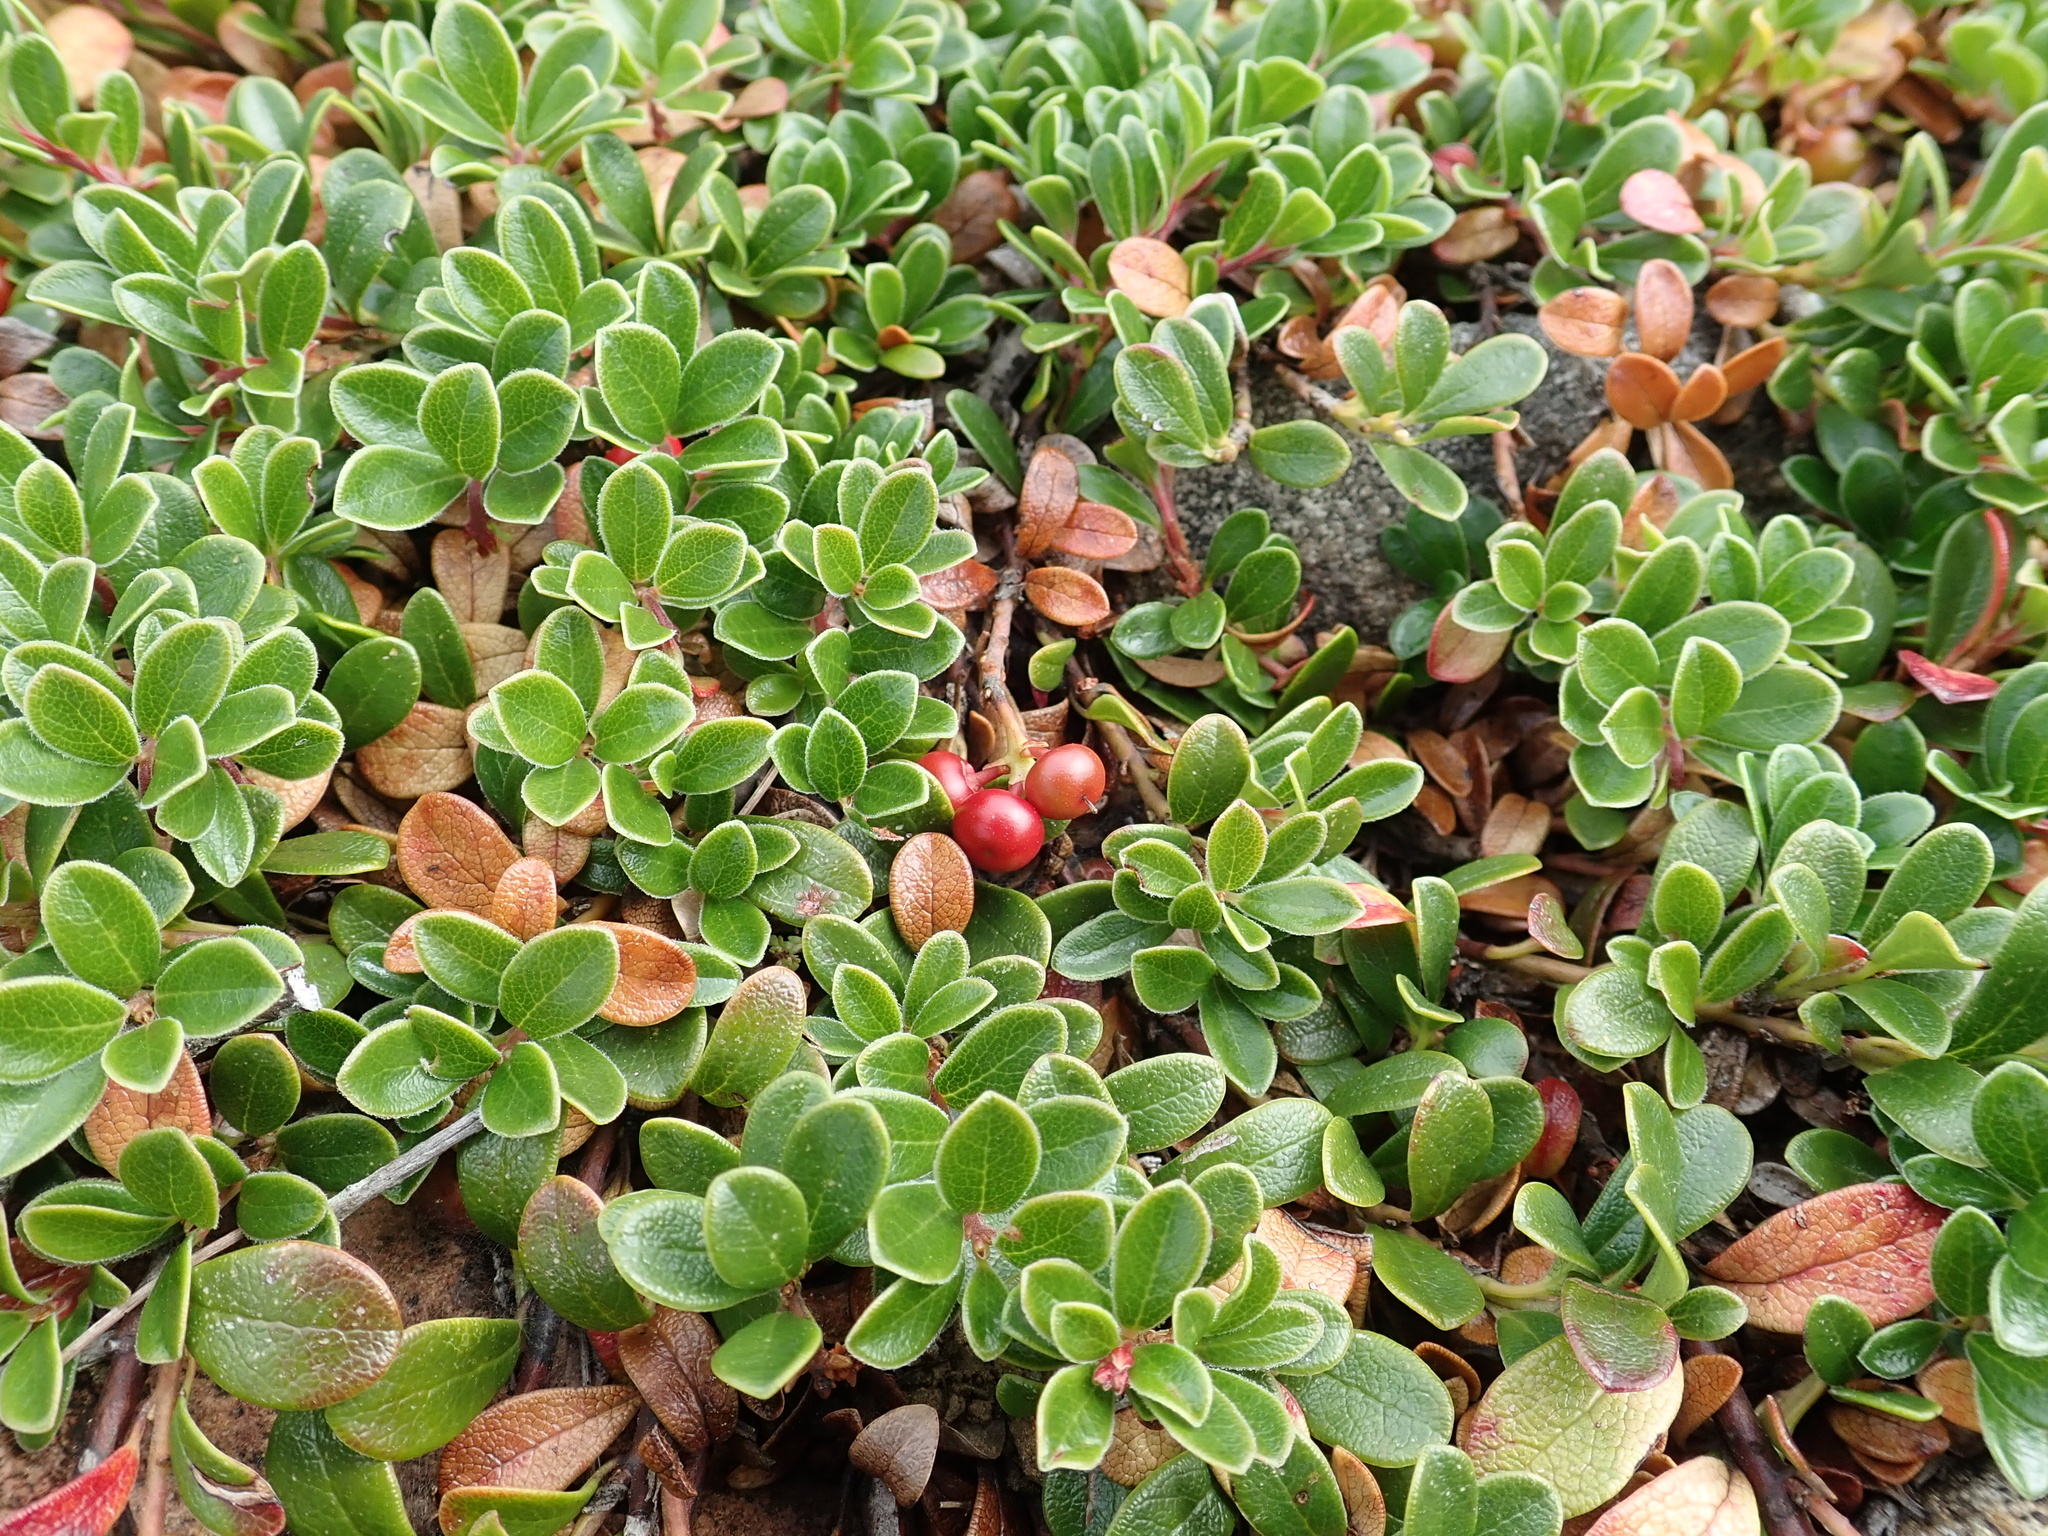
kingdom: Plantae
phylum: Tracheophyta
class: Magnoliopsida
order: Ericales
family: Ericaceae
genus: Arctostaphylos
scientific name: Arctostaphylos uva-ursi
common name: Bearberry
